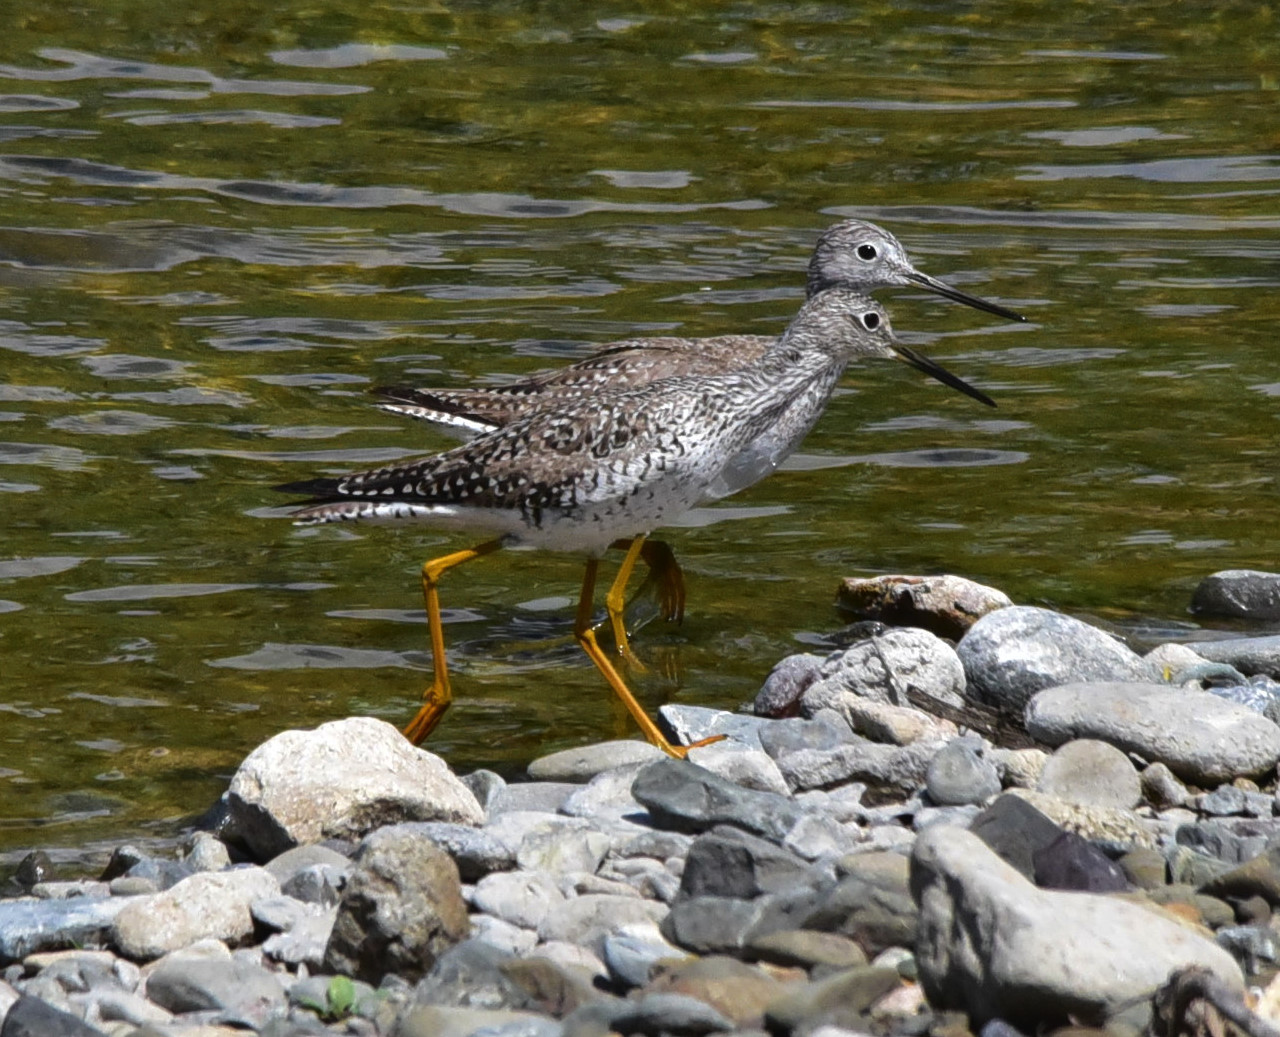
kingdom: Animalia
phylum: Chordata
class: Aves
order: Charadriiformes
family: Scolopacidae
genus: Tringa
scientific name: Tringa melanoleuca
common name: Greater yellowlegs
